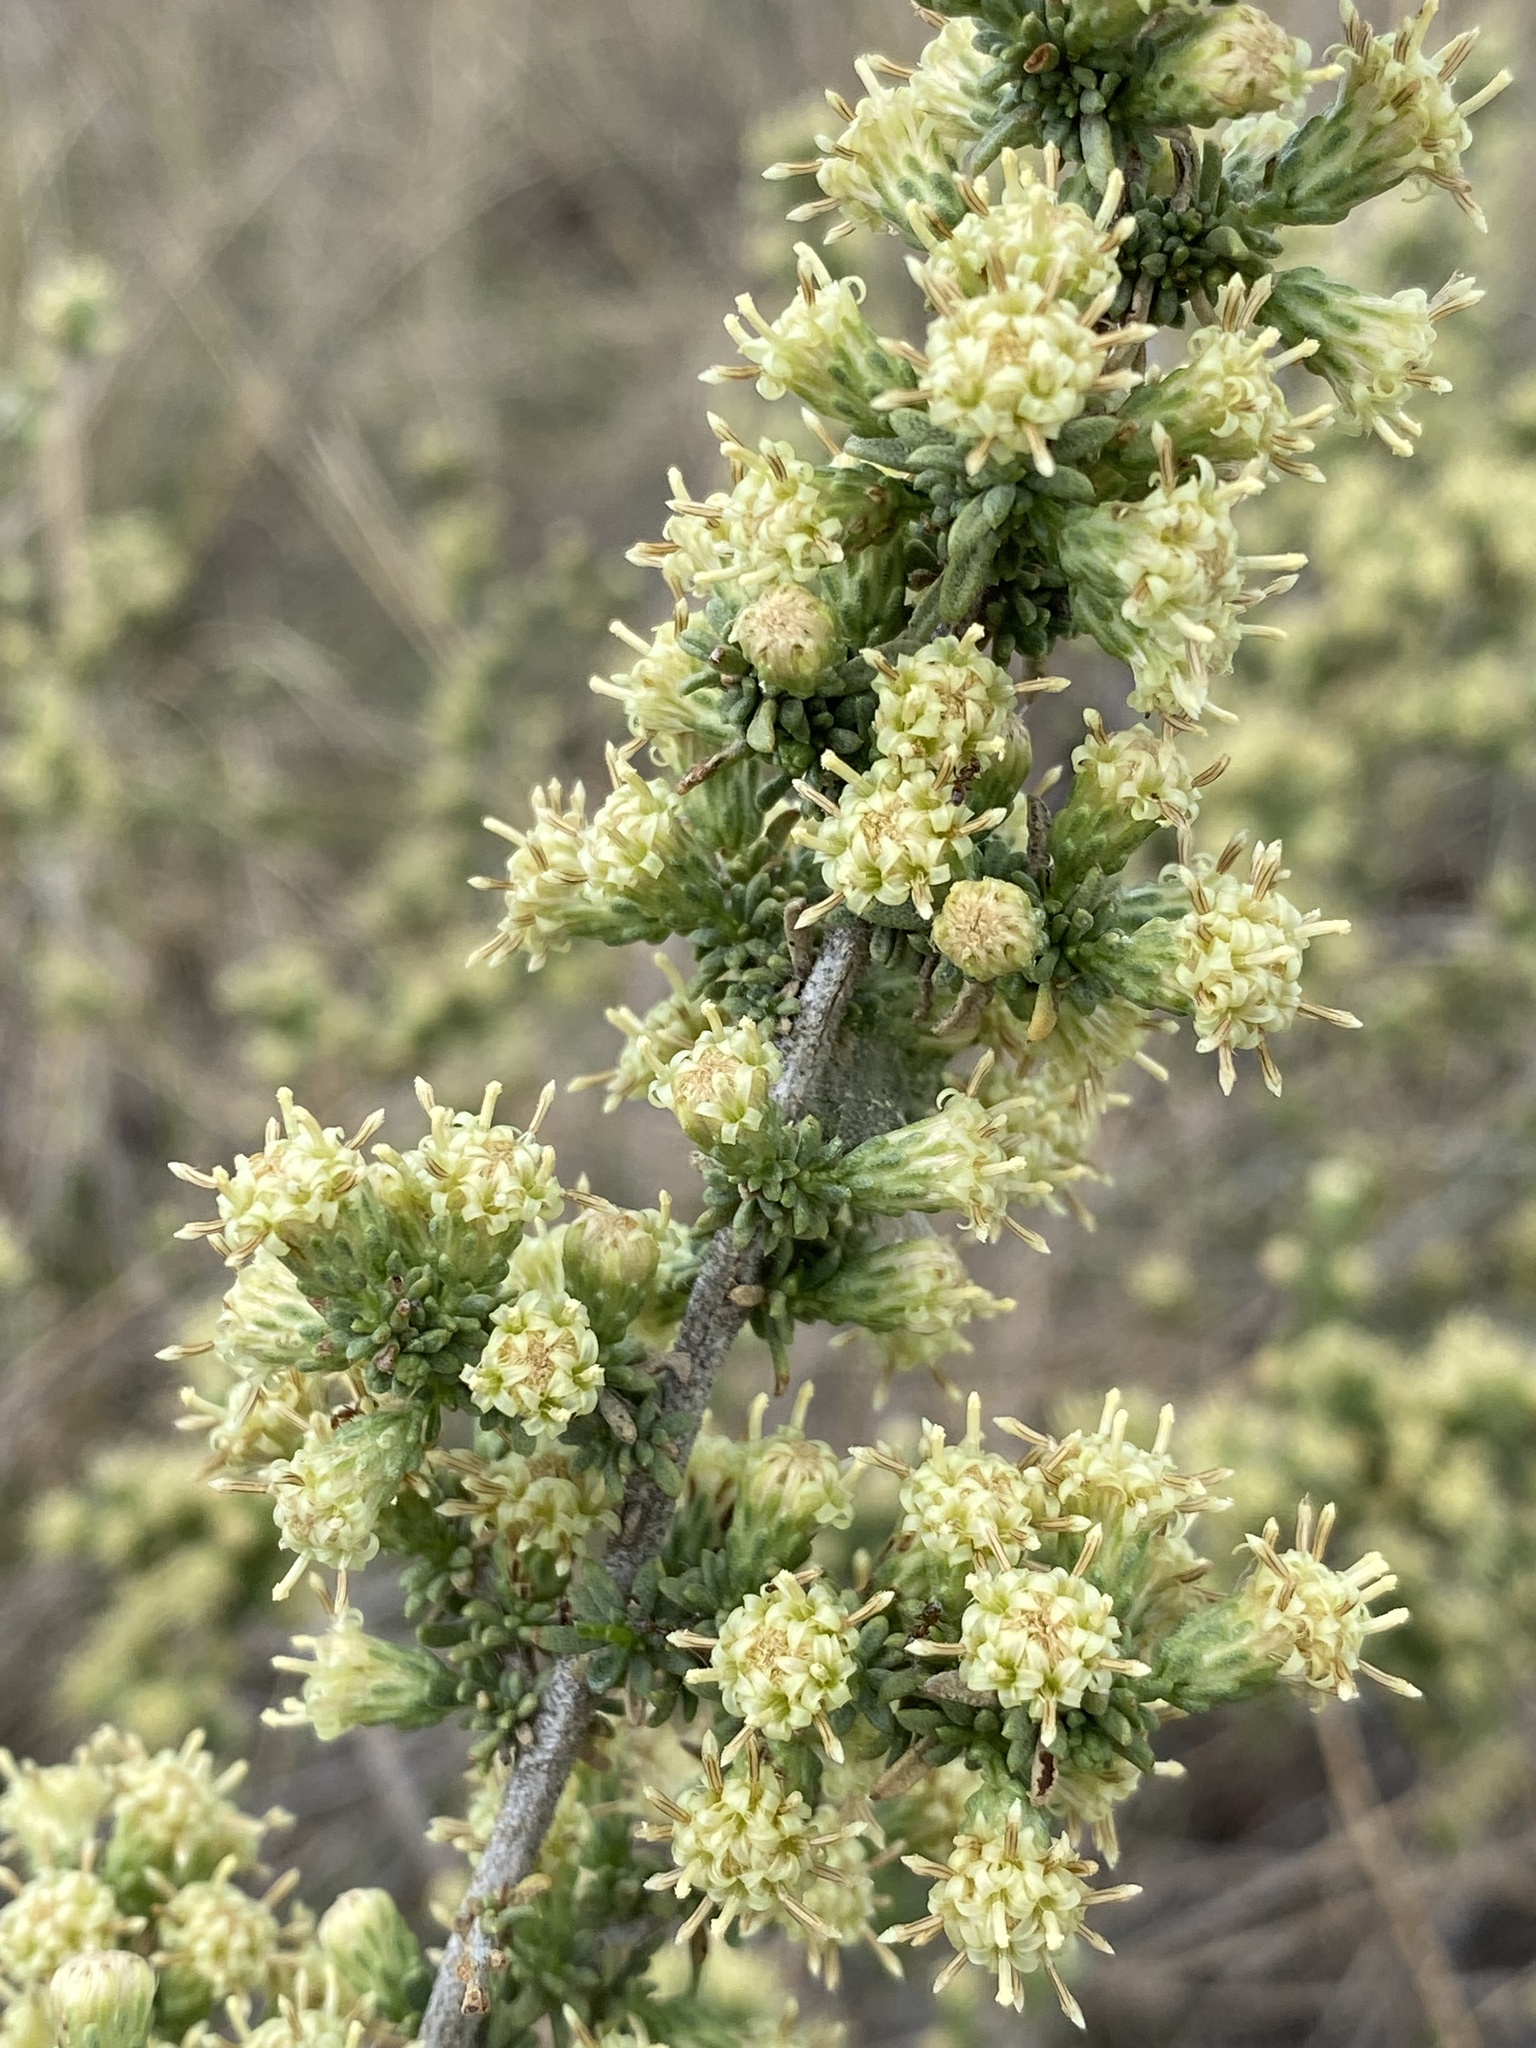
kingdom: Plantae
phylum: Tracheophyta
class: Magnoliopsida
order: Asterales
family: Asteraceae
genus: Baccharis
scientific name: Baccharis pteronioides
